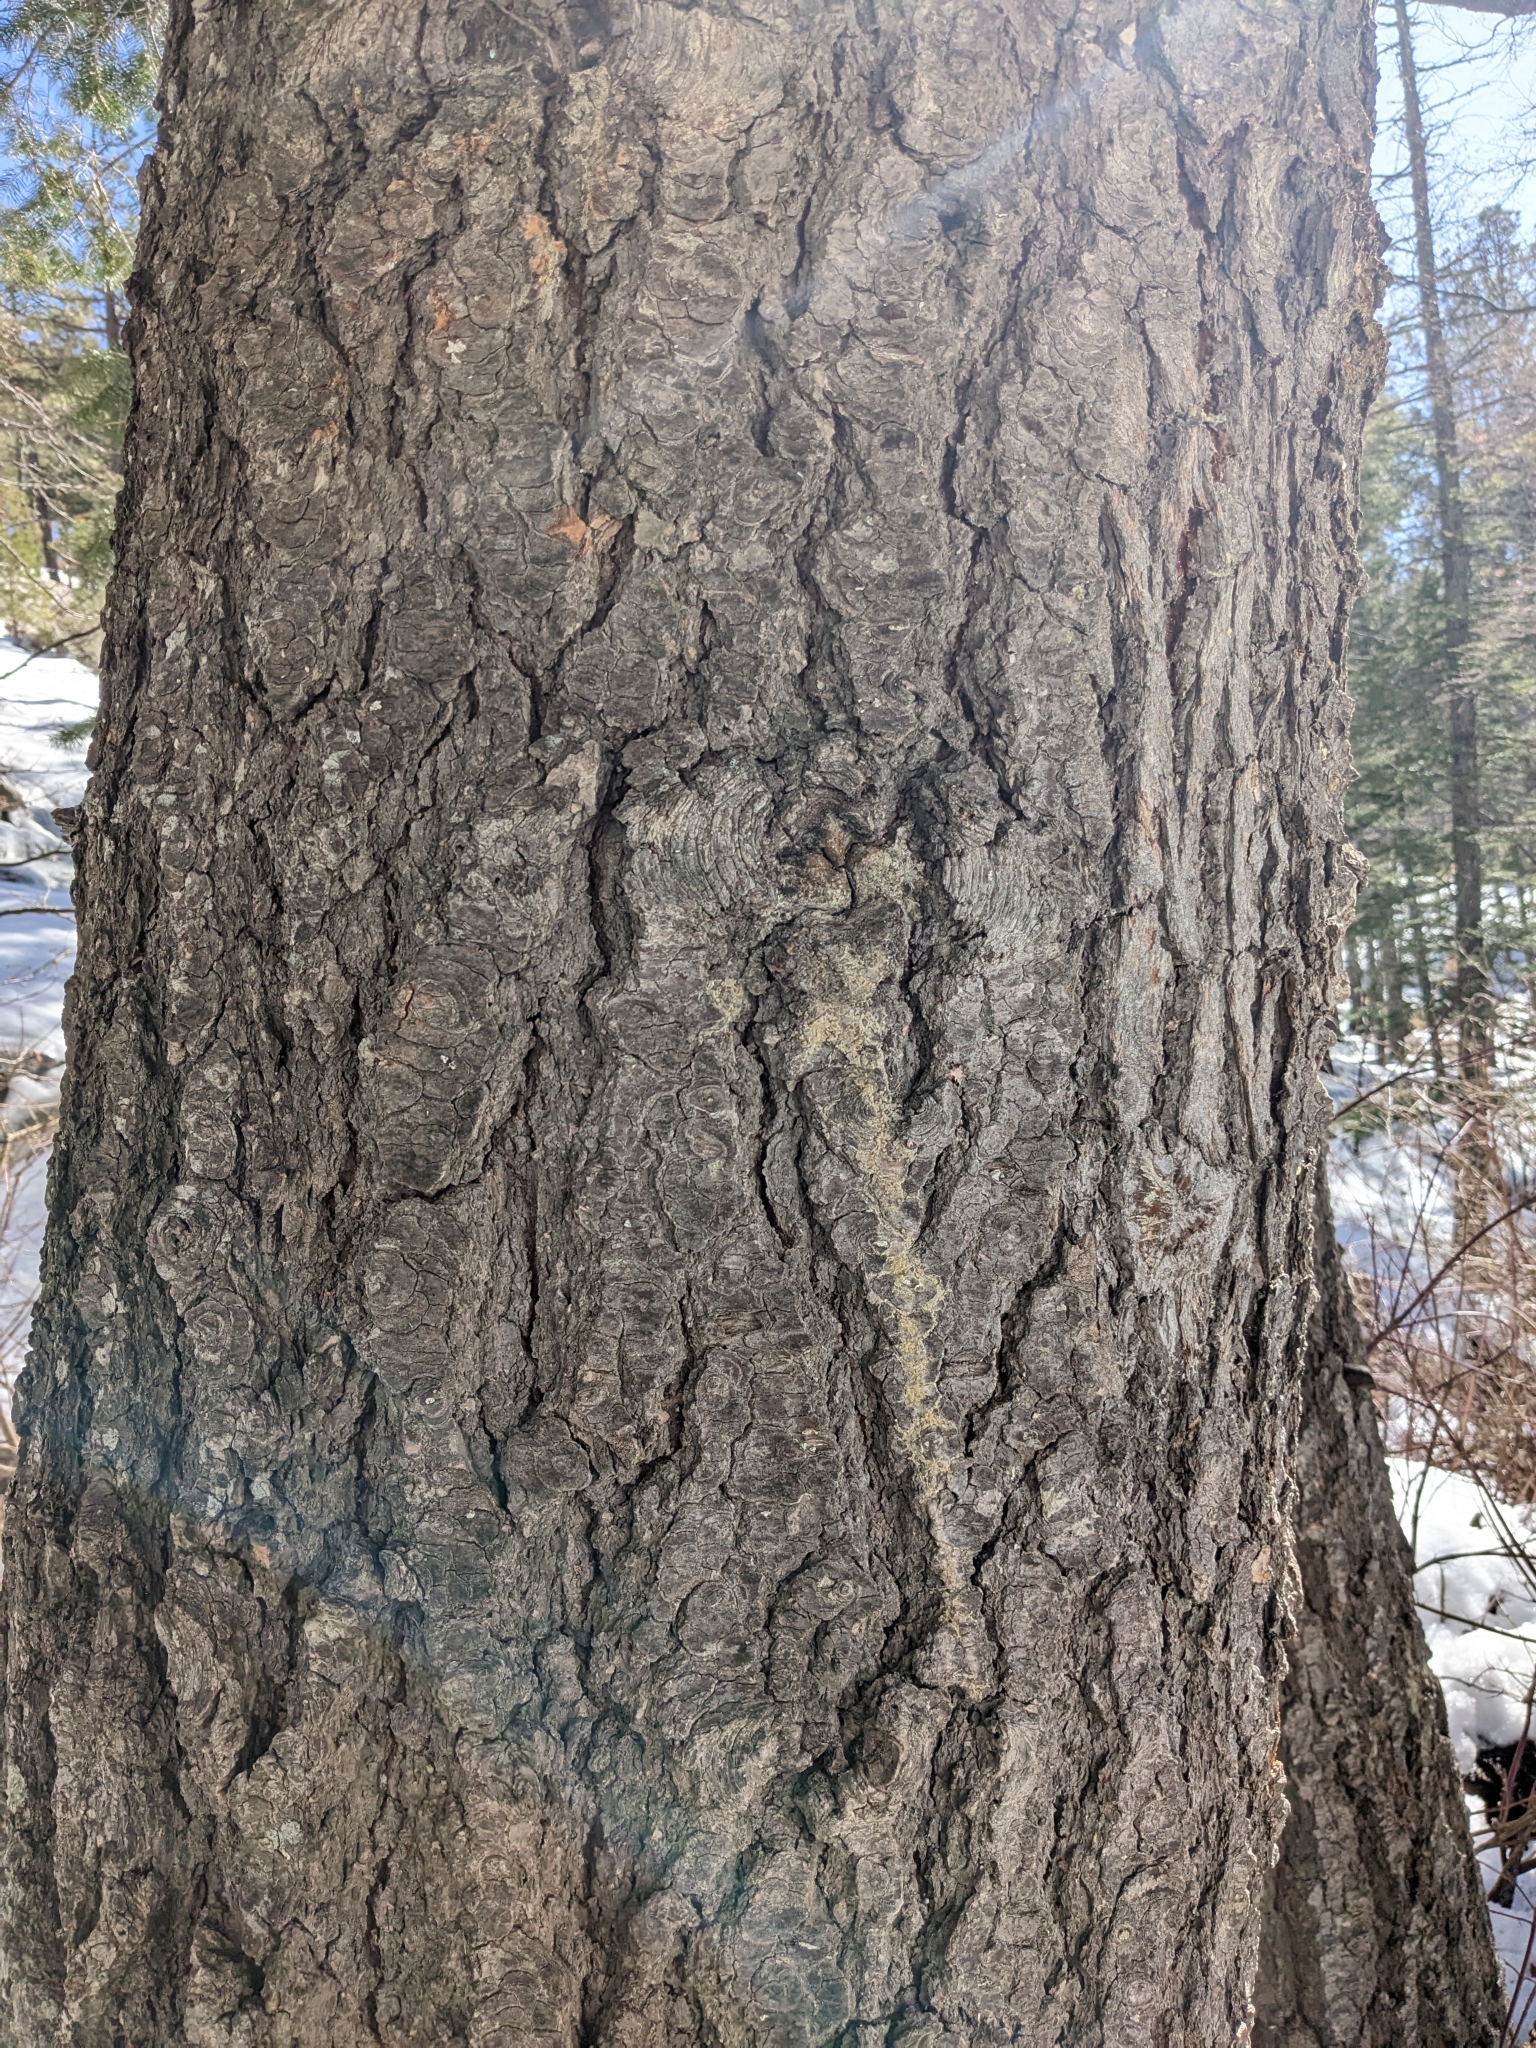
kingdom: Plantae
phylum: Tracheophyta
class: Pinopsida
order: Pinales
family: Pinaceae
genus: Abies
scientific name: Abies concolor
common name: Colorado fir
